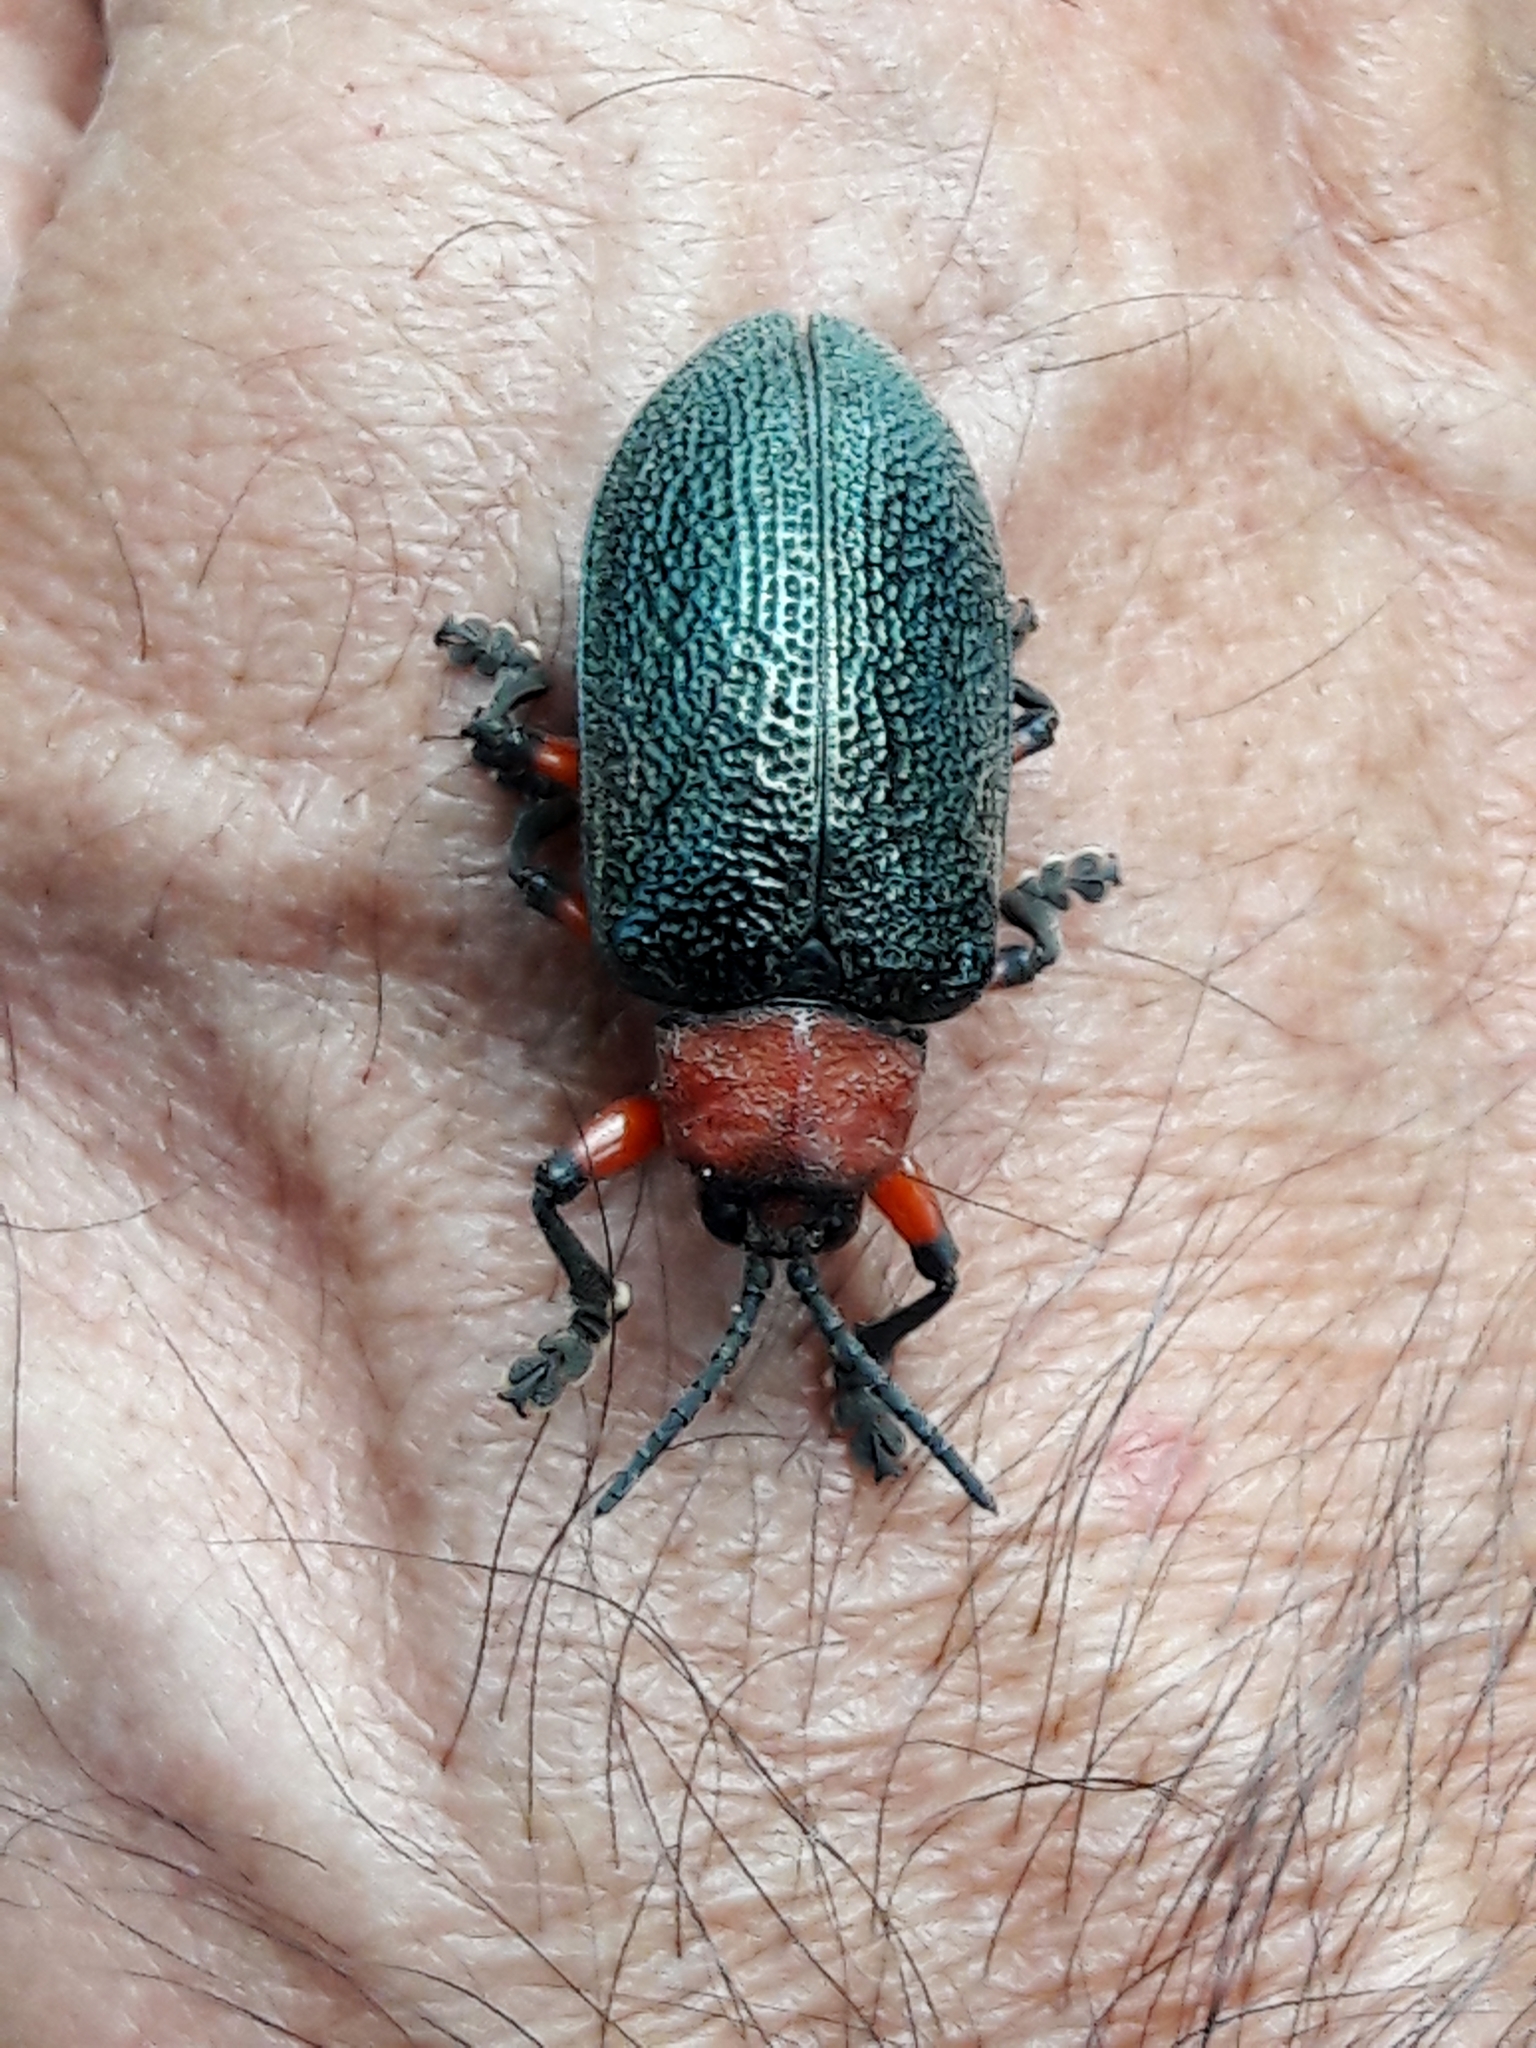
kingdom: Animalia
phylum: Arthropoda
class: Insecta
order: Coleoptera
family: Chrysomelidae
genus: Coraliomela
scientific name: Coraliomela brunnea
